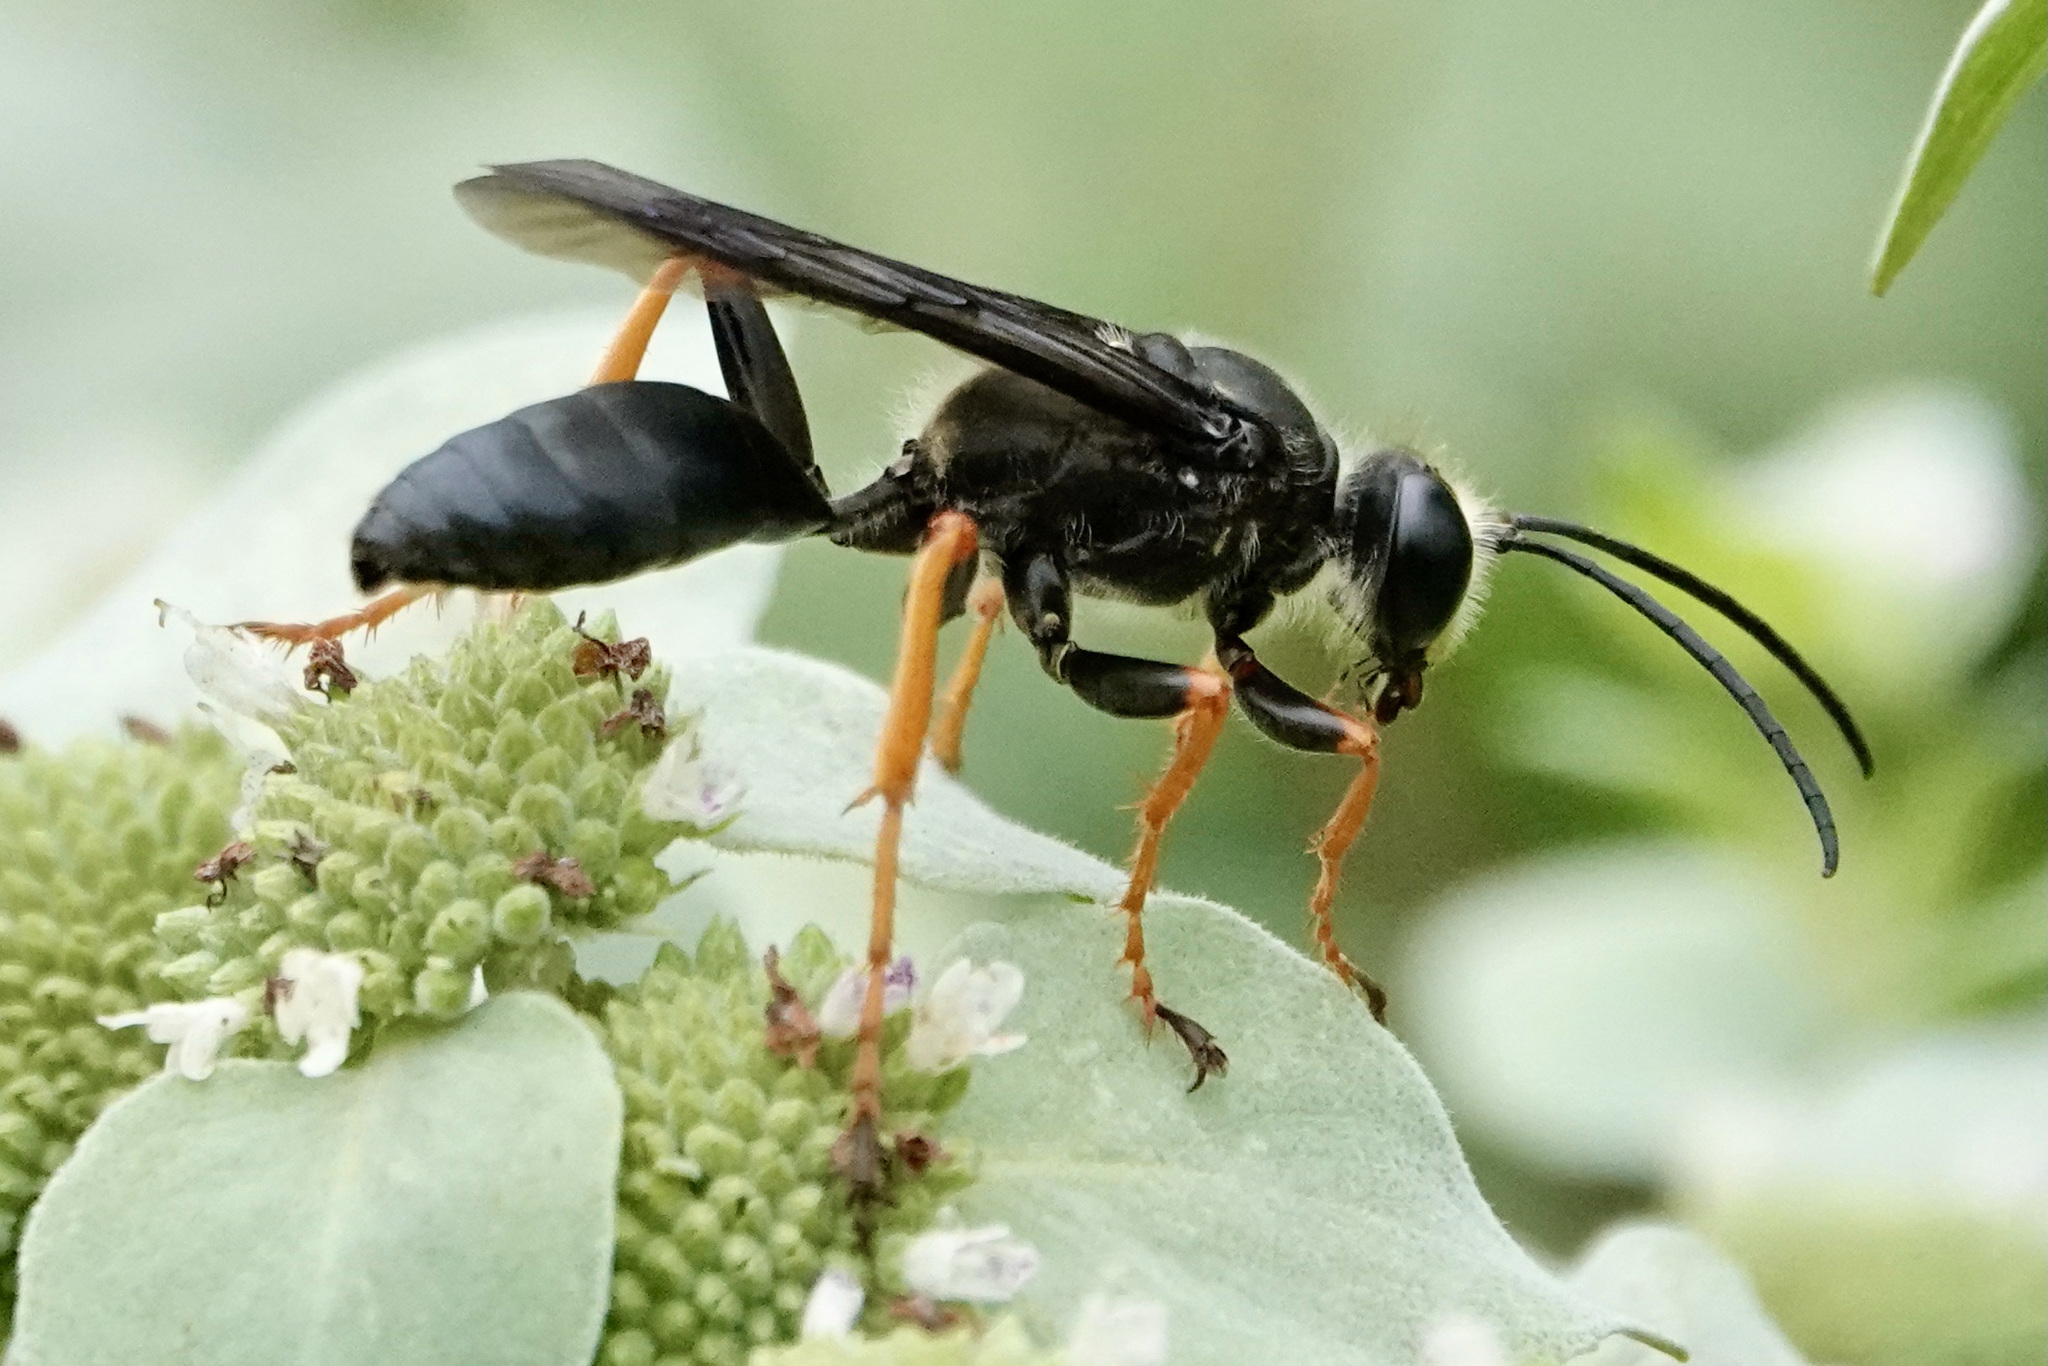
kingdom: Animalia
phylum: Arthropoda
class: Insecta
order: Hymenoptera
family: Sphecidae
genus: Sphex
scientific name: Sphex nudus
